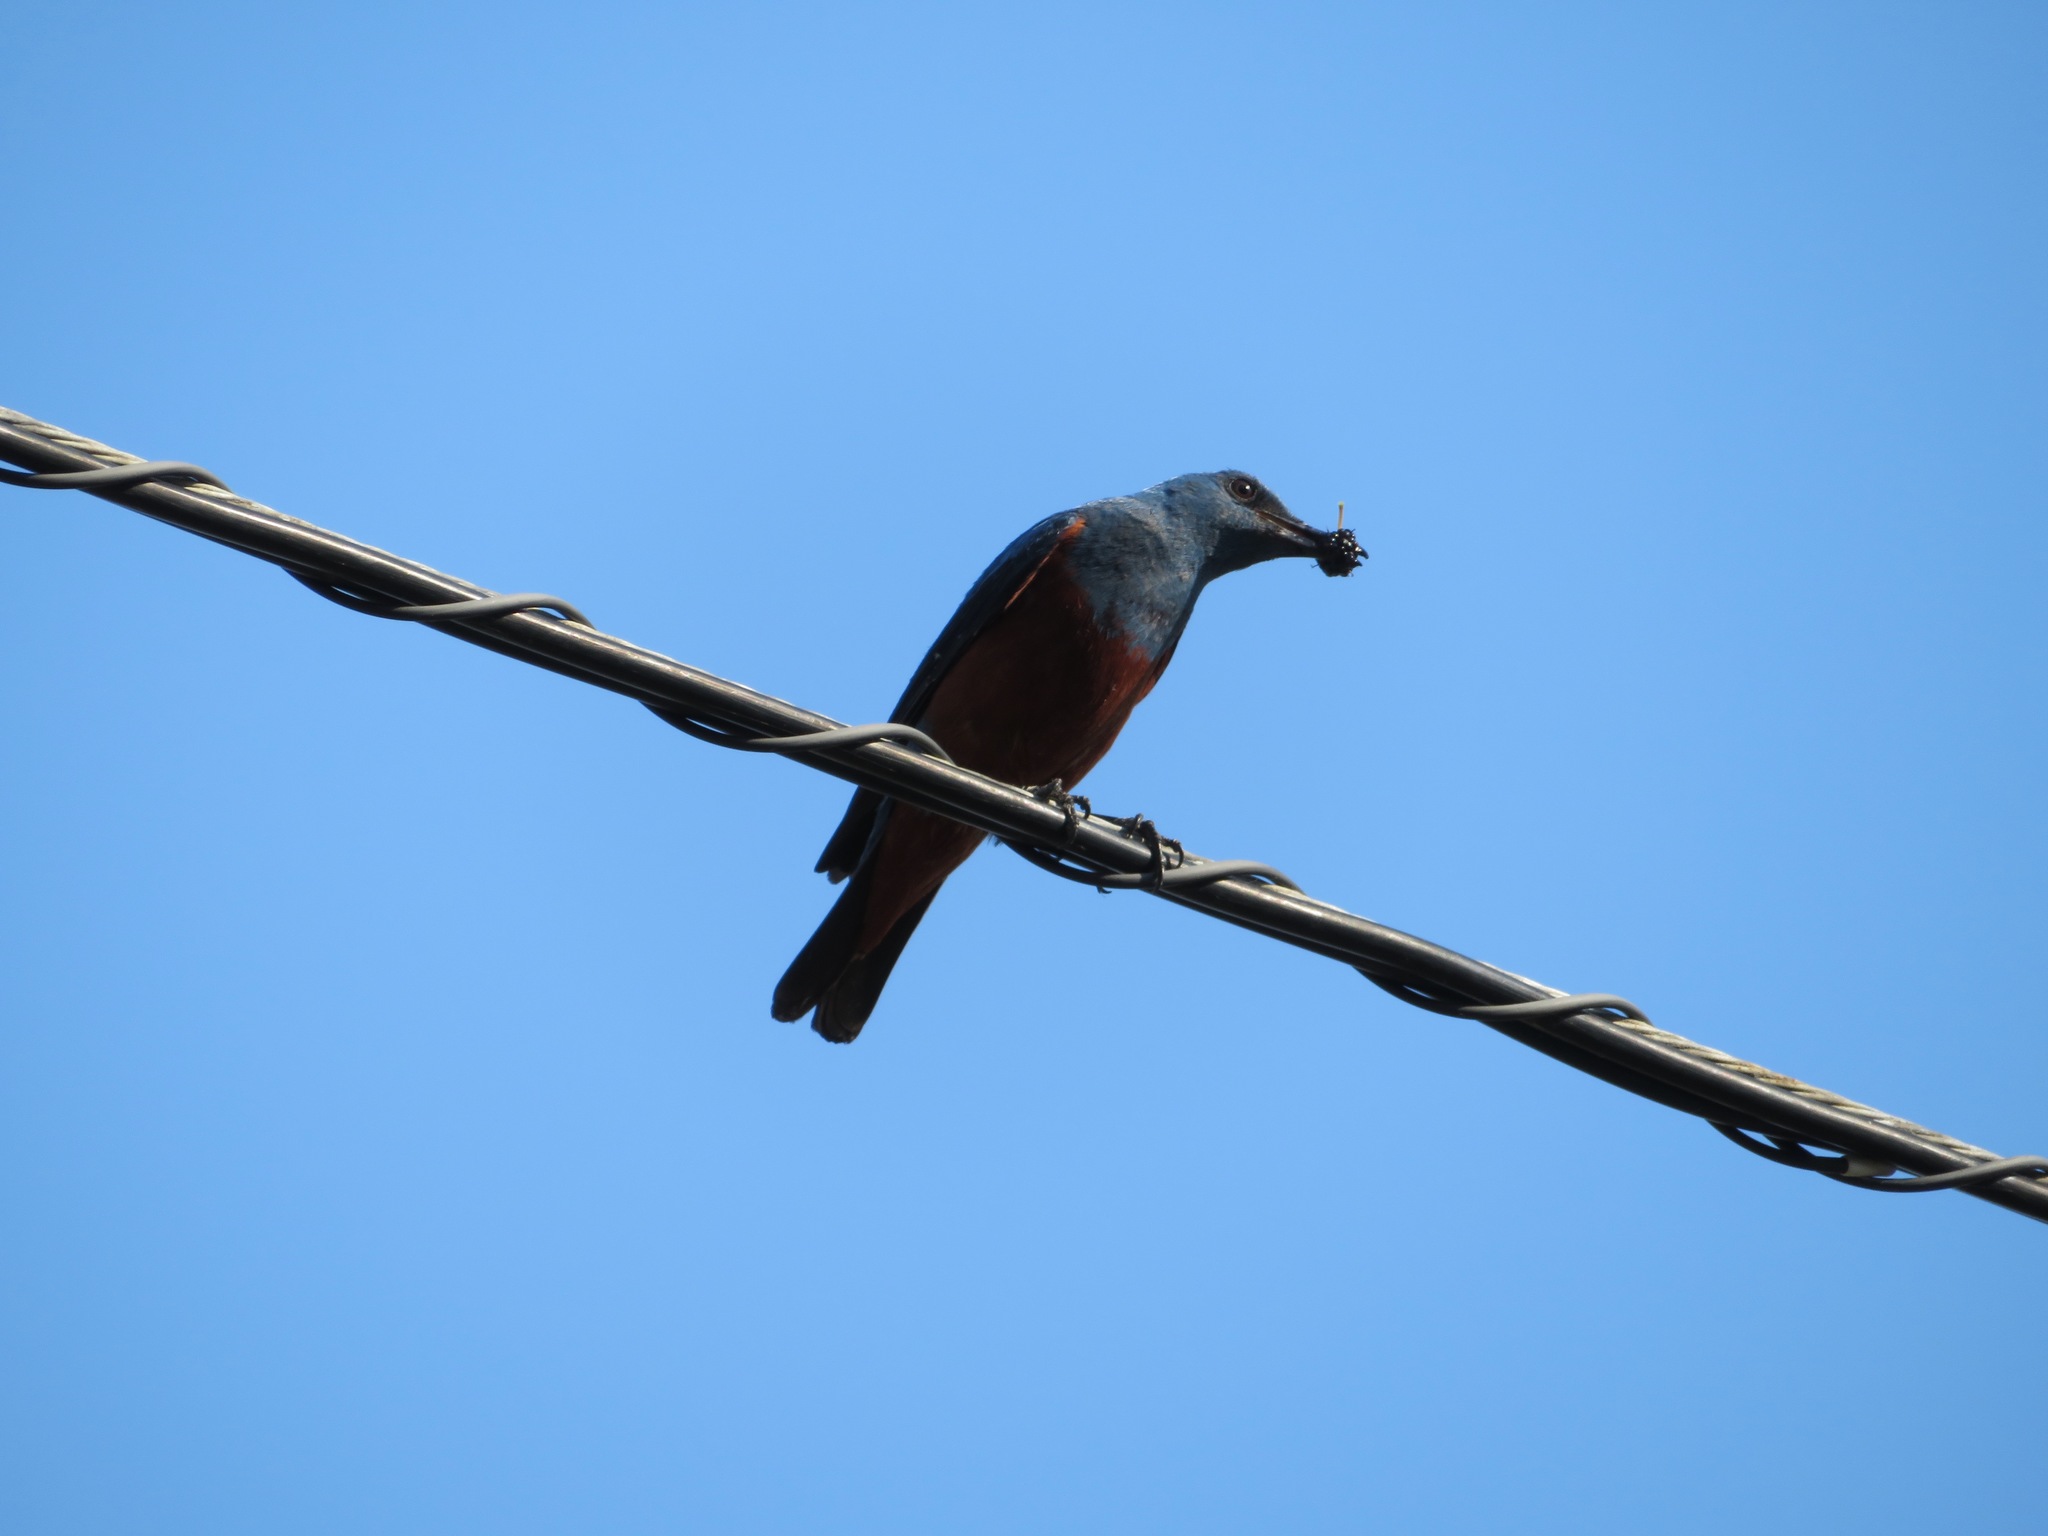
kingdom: Animalia
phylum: Chordata
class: Aves
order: Passeriformes
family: Muscicapidae
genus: Monticola
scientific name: Monticola solitarius
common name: Blue rock thrush
